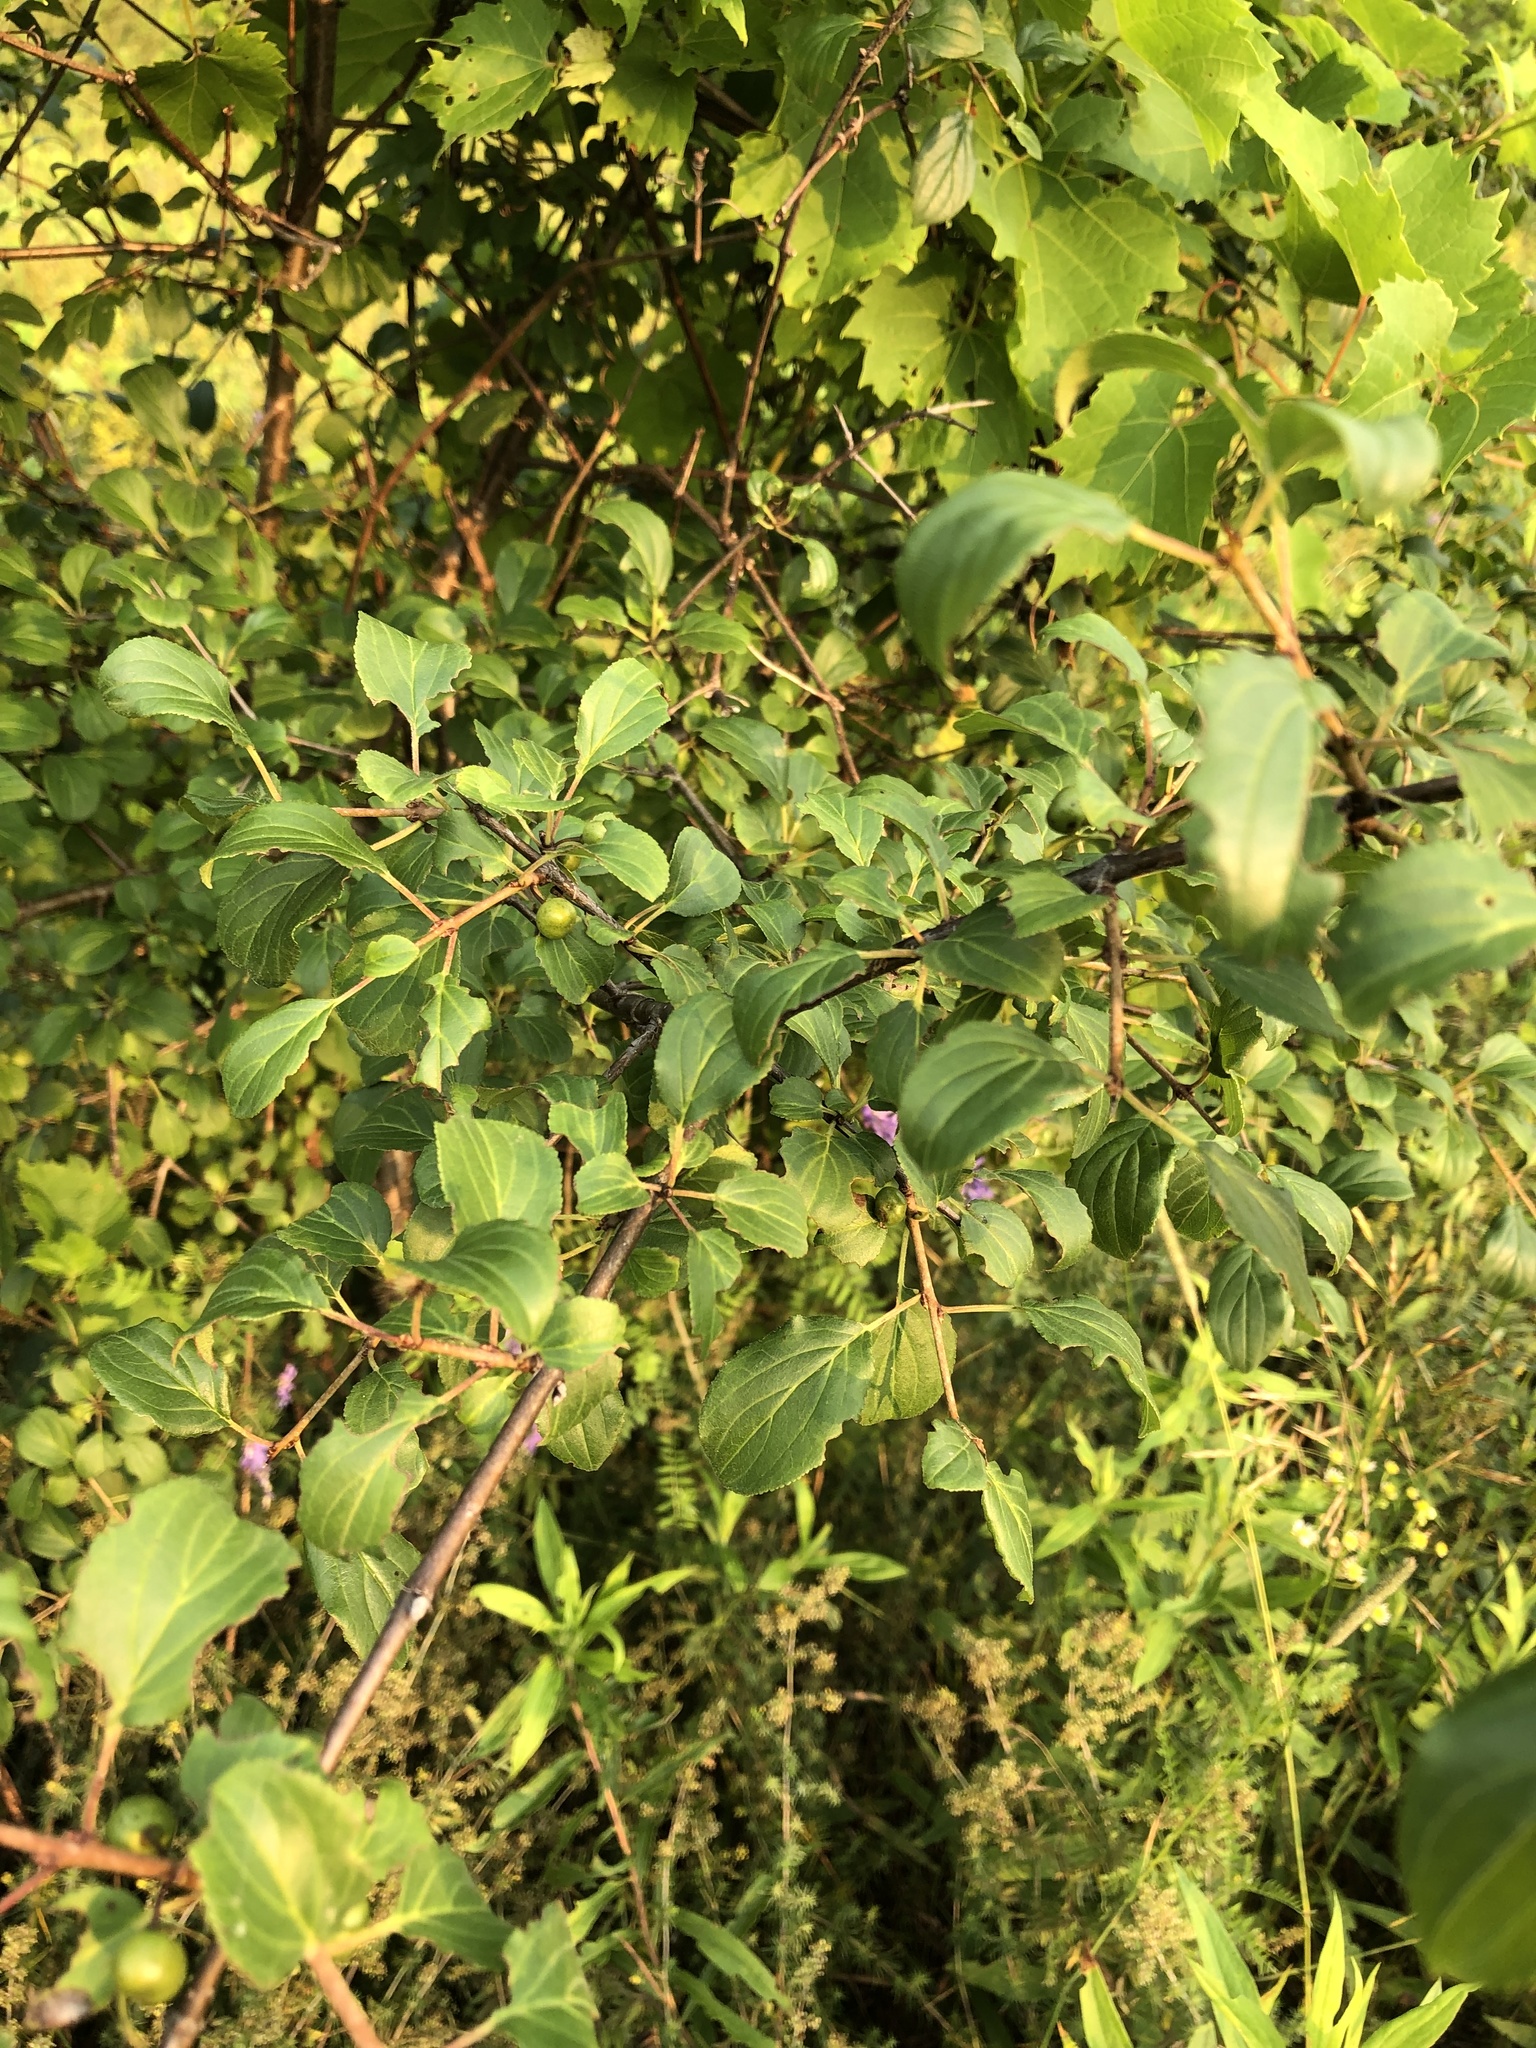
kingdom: Plantae
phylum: Tracheophyta
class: Magnoliopsida
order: Rosales
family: Rhamnaceae
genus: Rhamnus
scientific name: Rhamnus cathartica
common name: Common buckthorn
